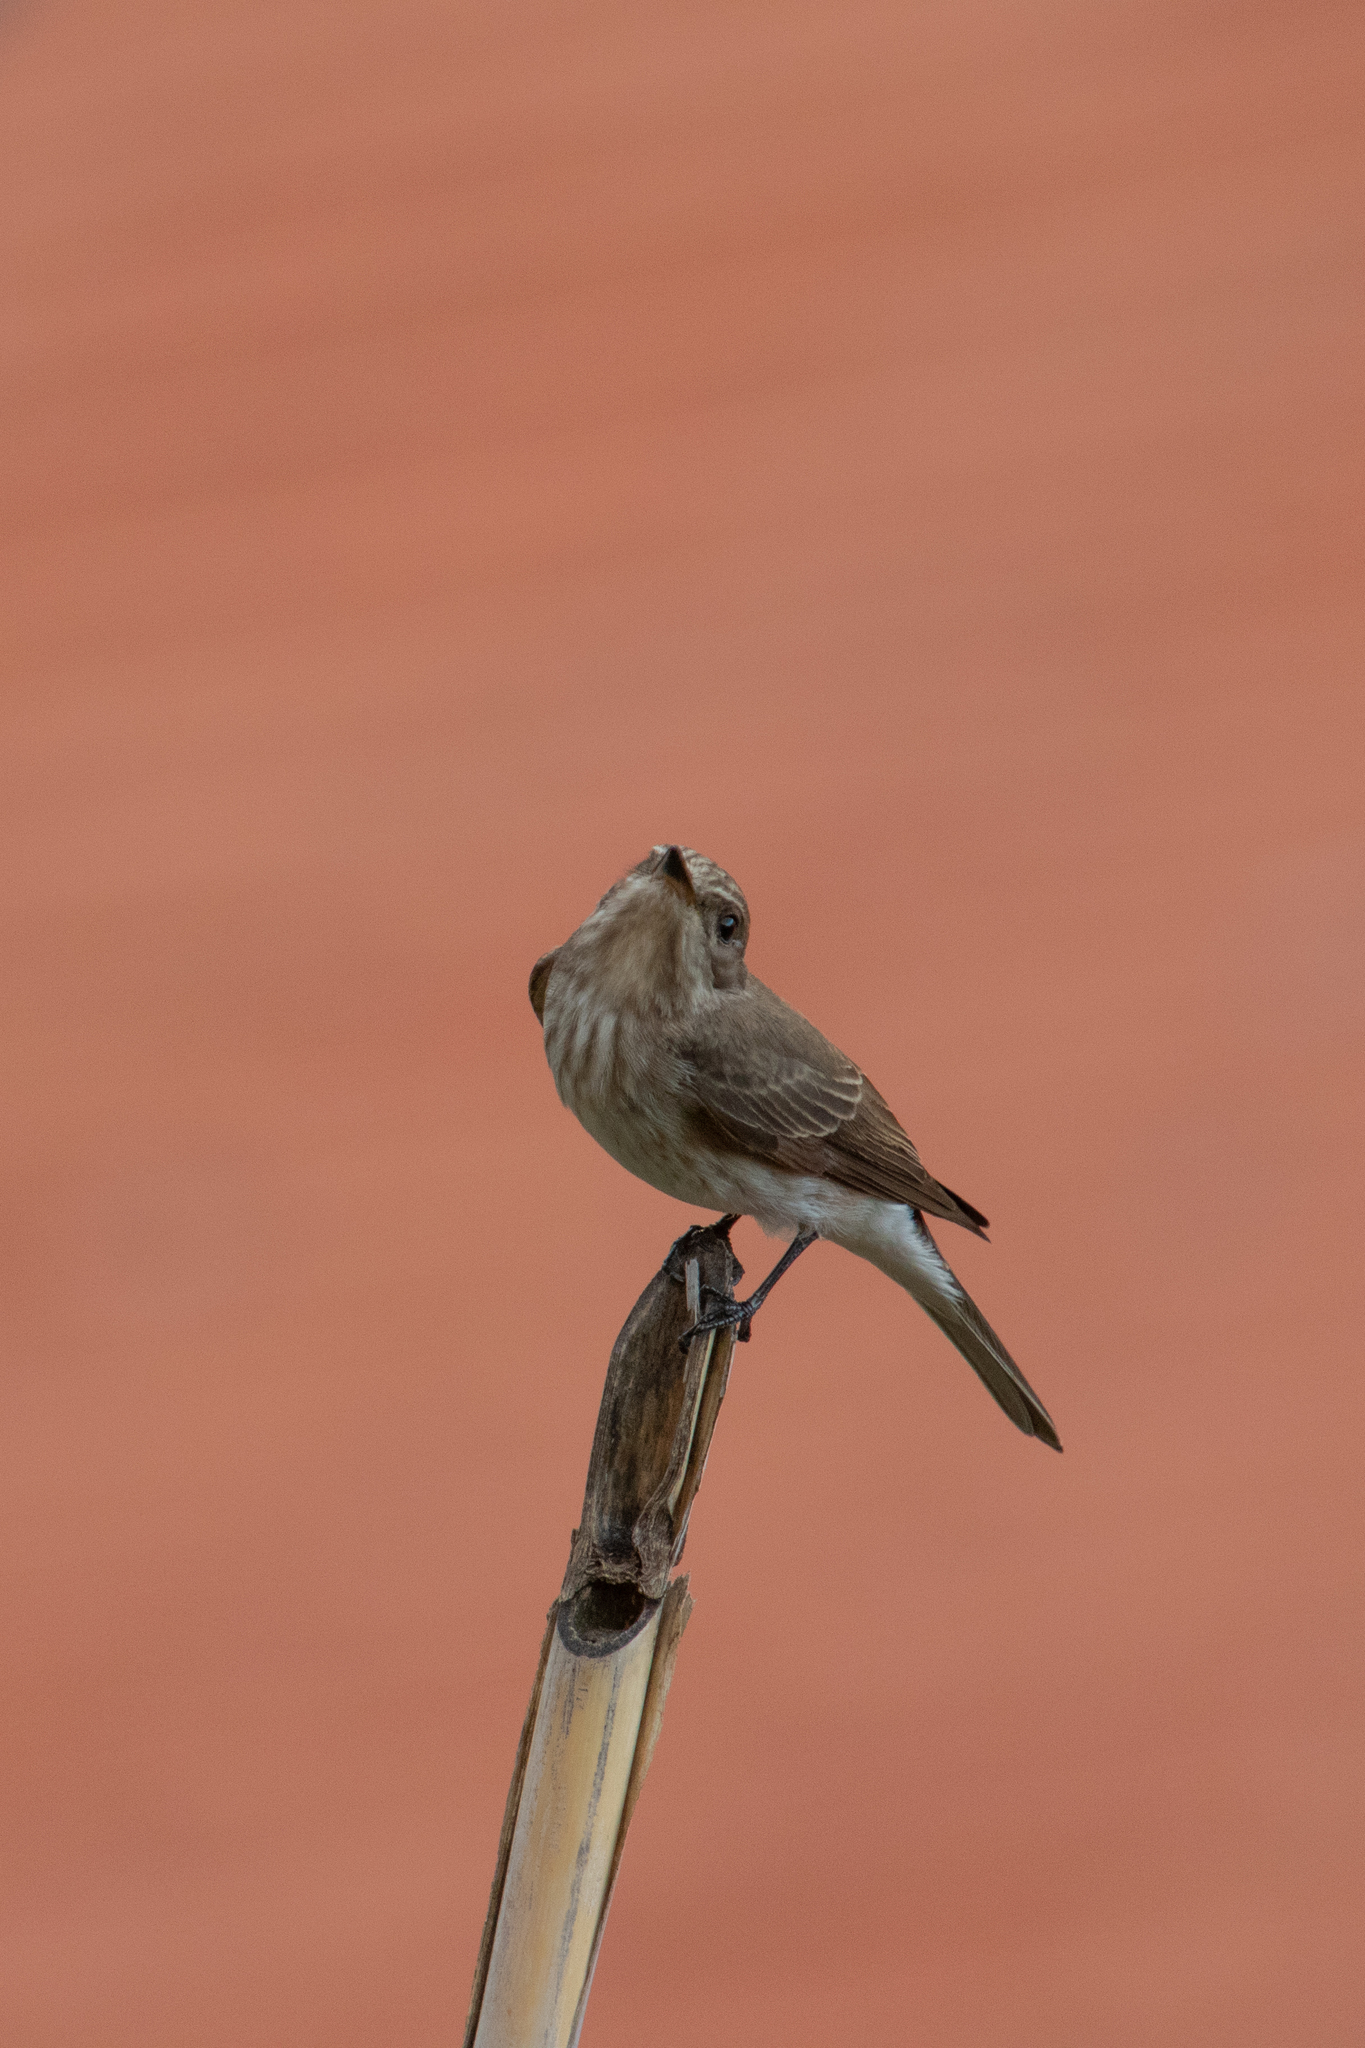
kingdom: Animalia
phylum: Chordata
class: Aves
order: Passeriformes
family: Muscicapidae
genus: Muscicapa
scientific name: Muscicapa striata
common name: Spotted flycatcher
